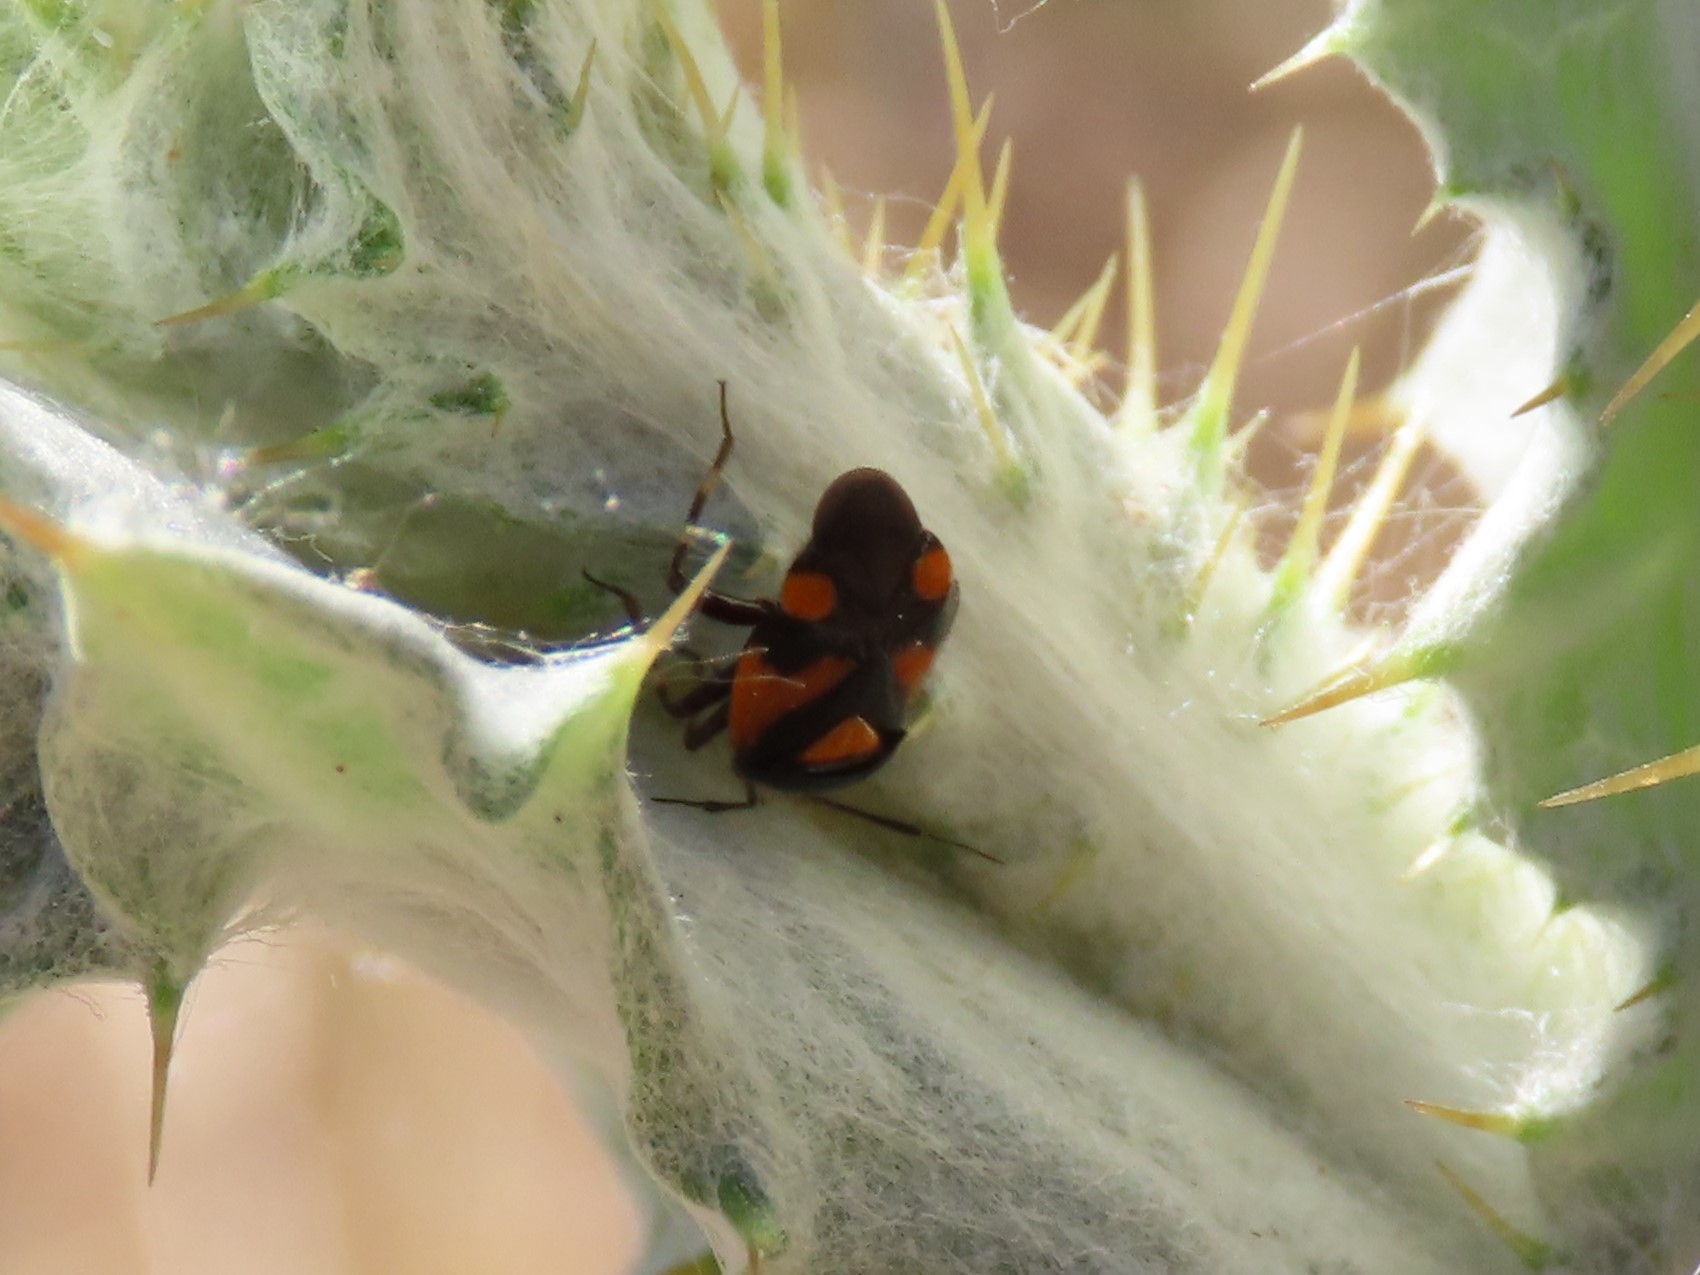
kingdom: Animalia
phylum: Arthropoda
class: Insecta
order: Hemiptera
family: Miridae
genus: Deraeocoris
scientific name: Deraeocoris schach
